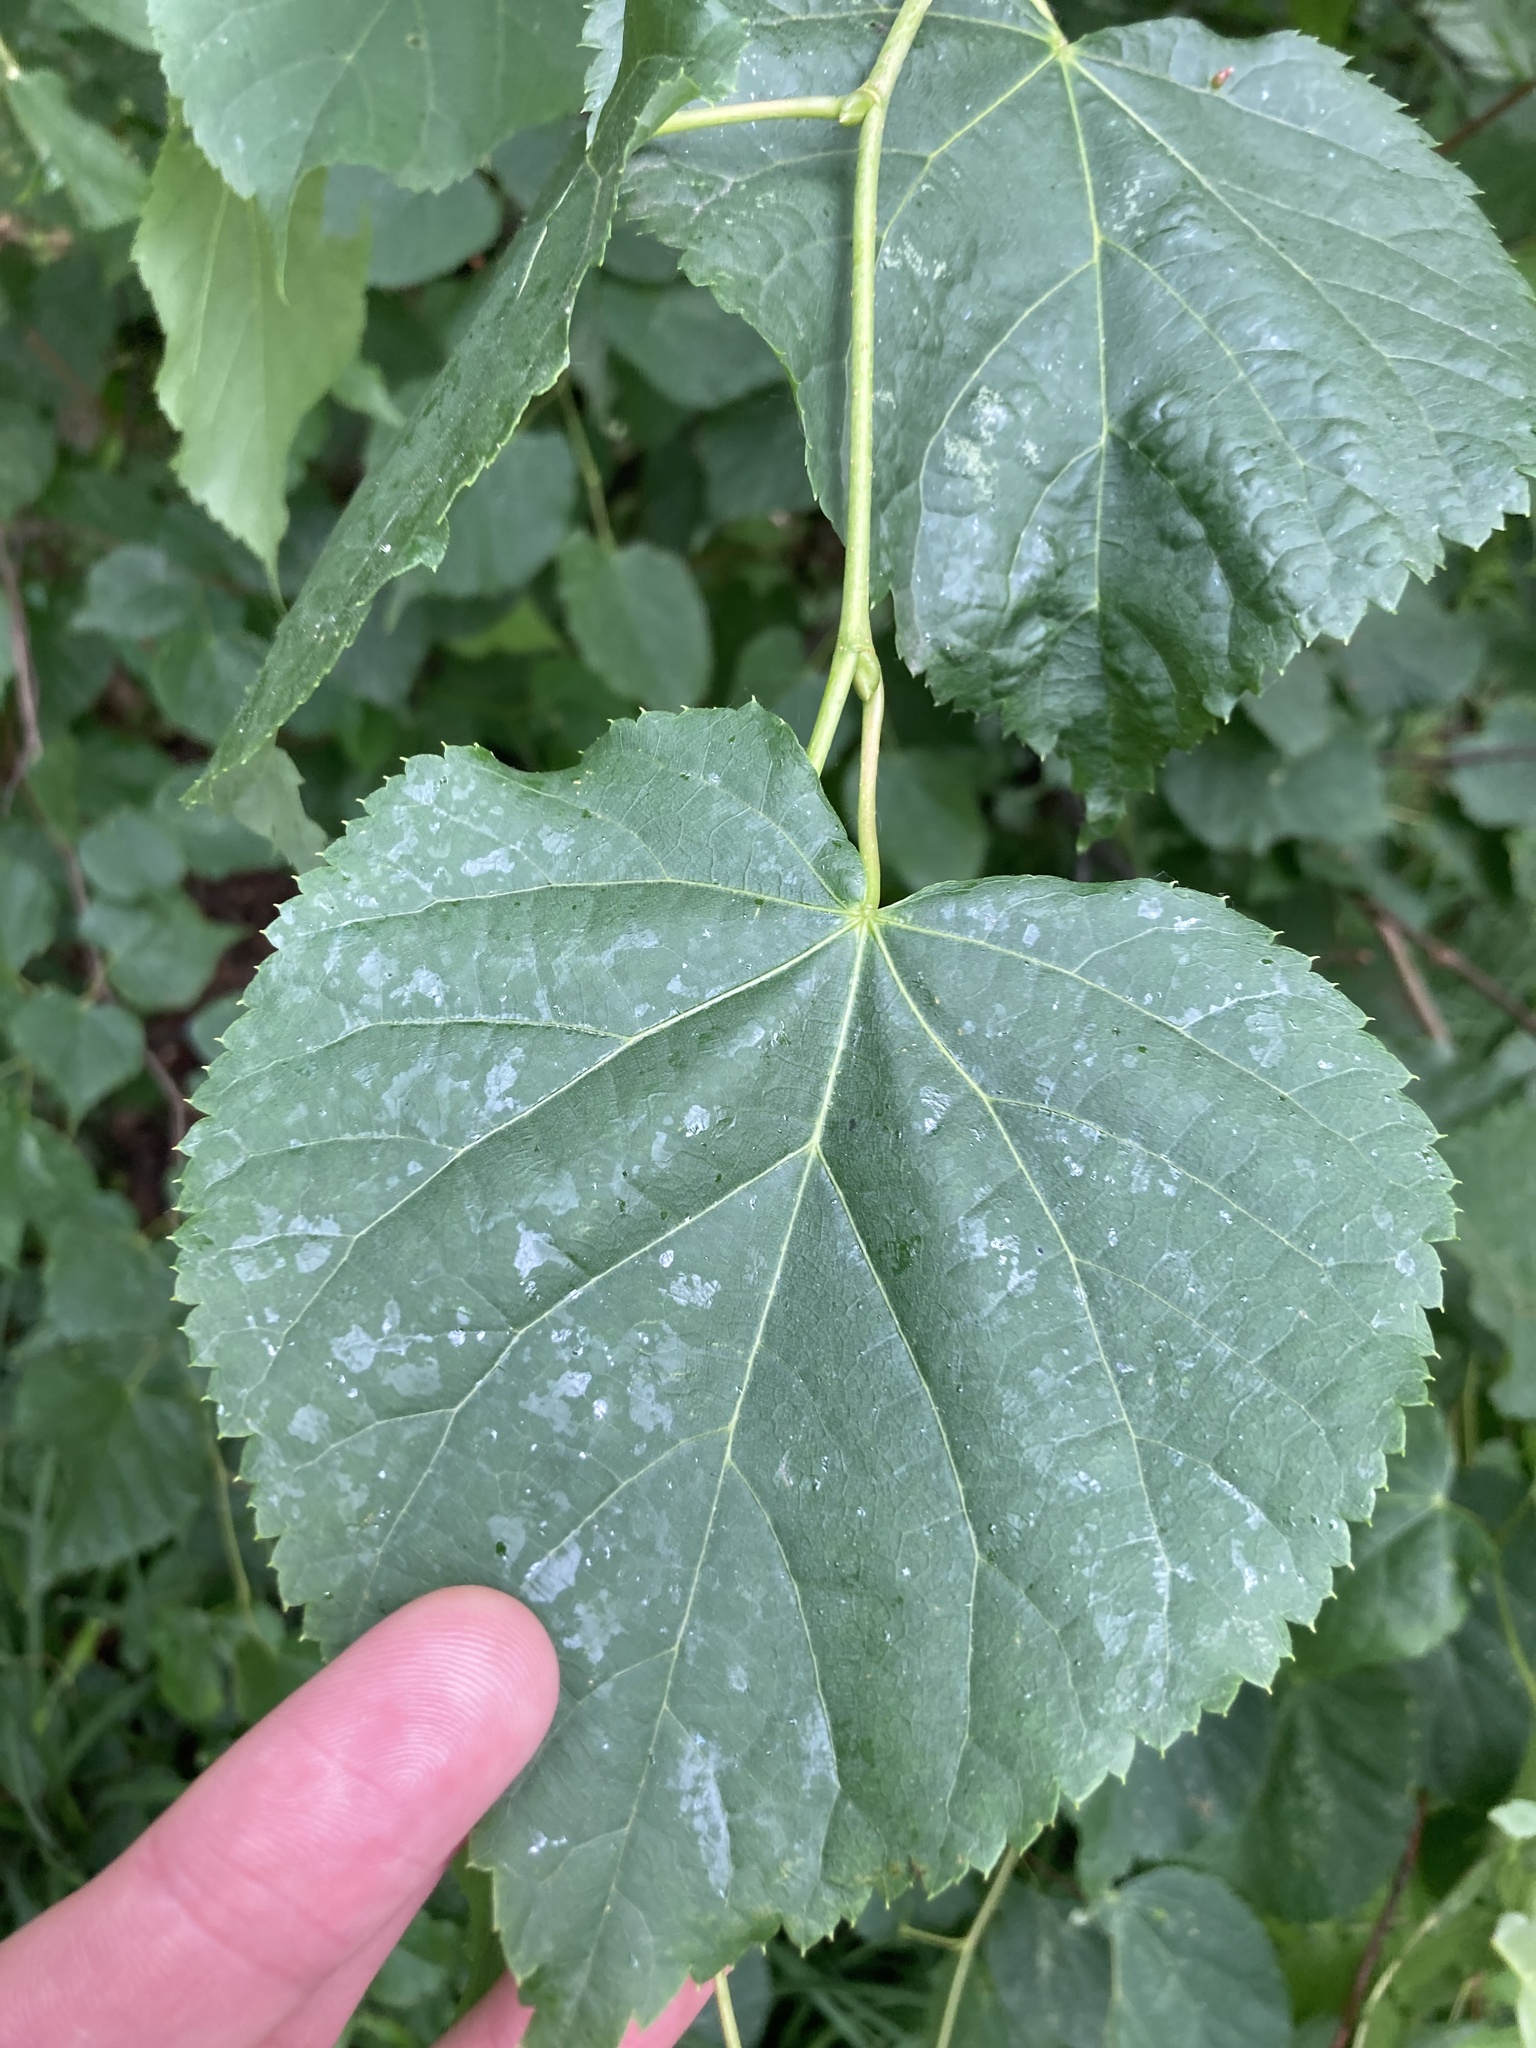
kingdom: Plantae
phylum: Tracheophyta
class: Magnoliopsida
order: Malvales
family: Malvaceae
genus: Tilia
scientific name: Tilia cordata
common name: Small-leaved lime
